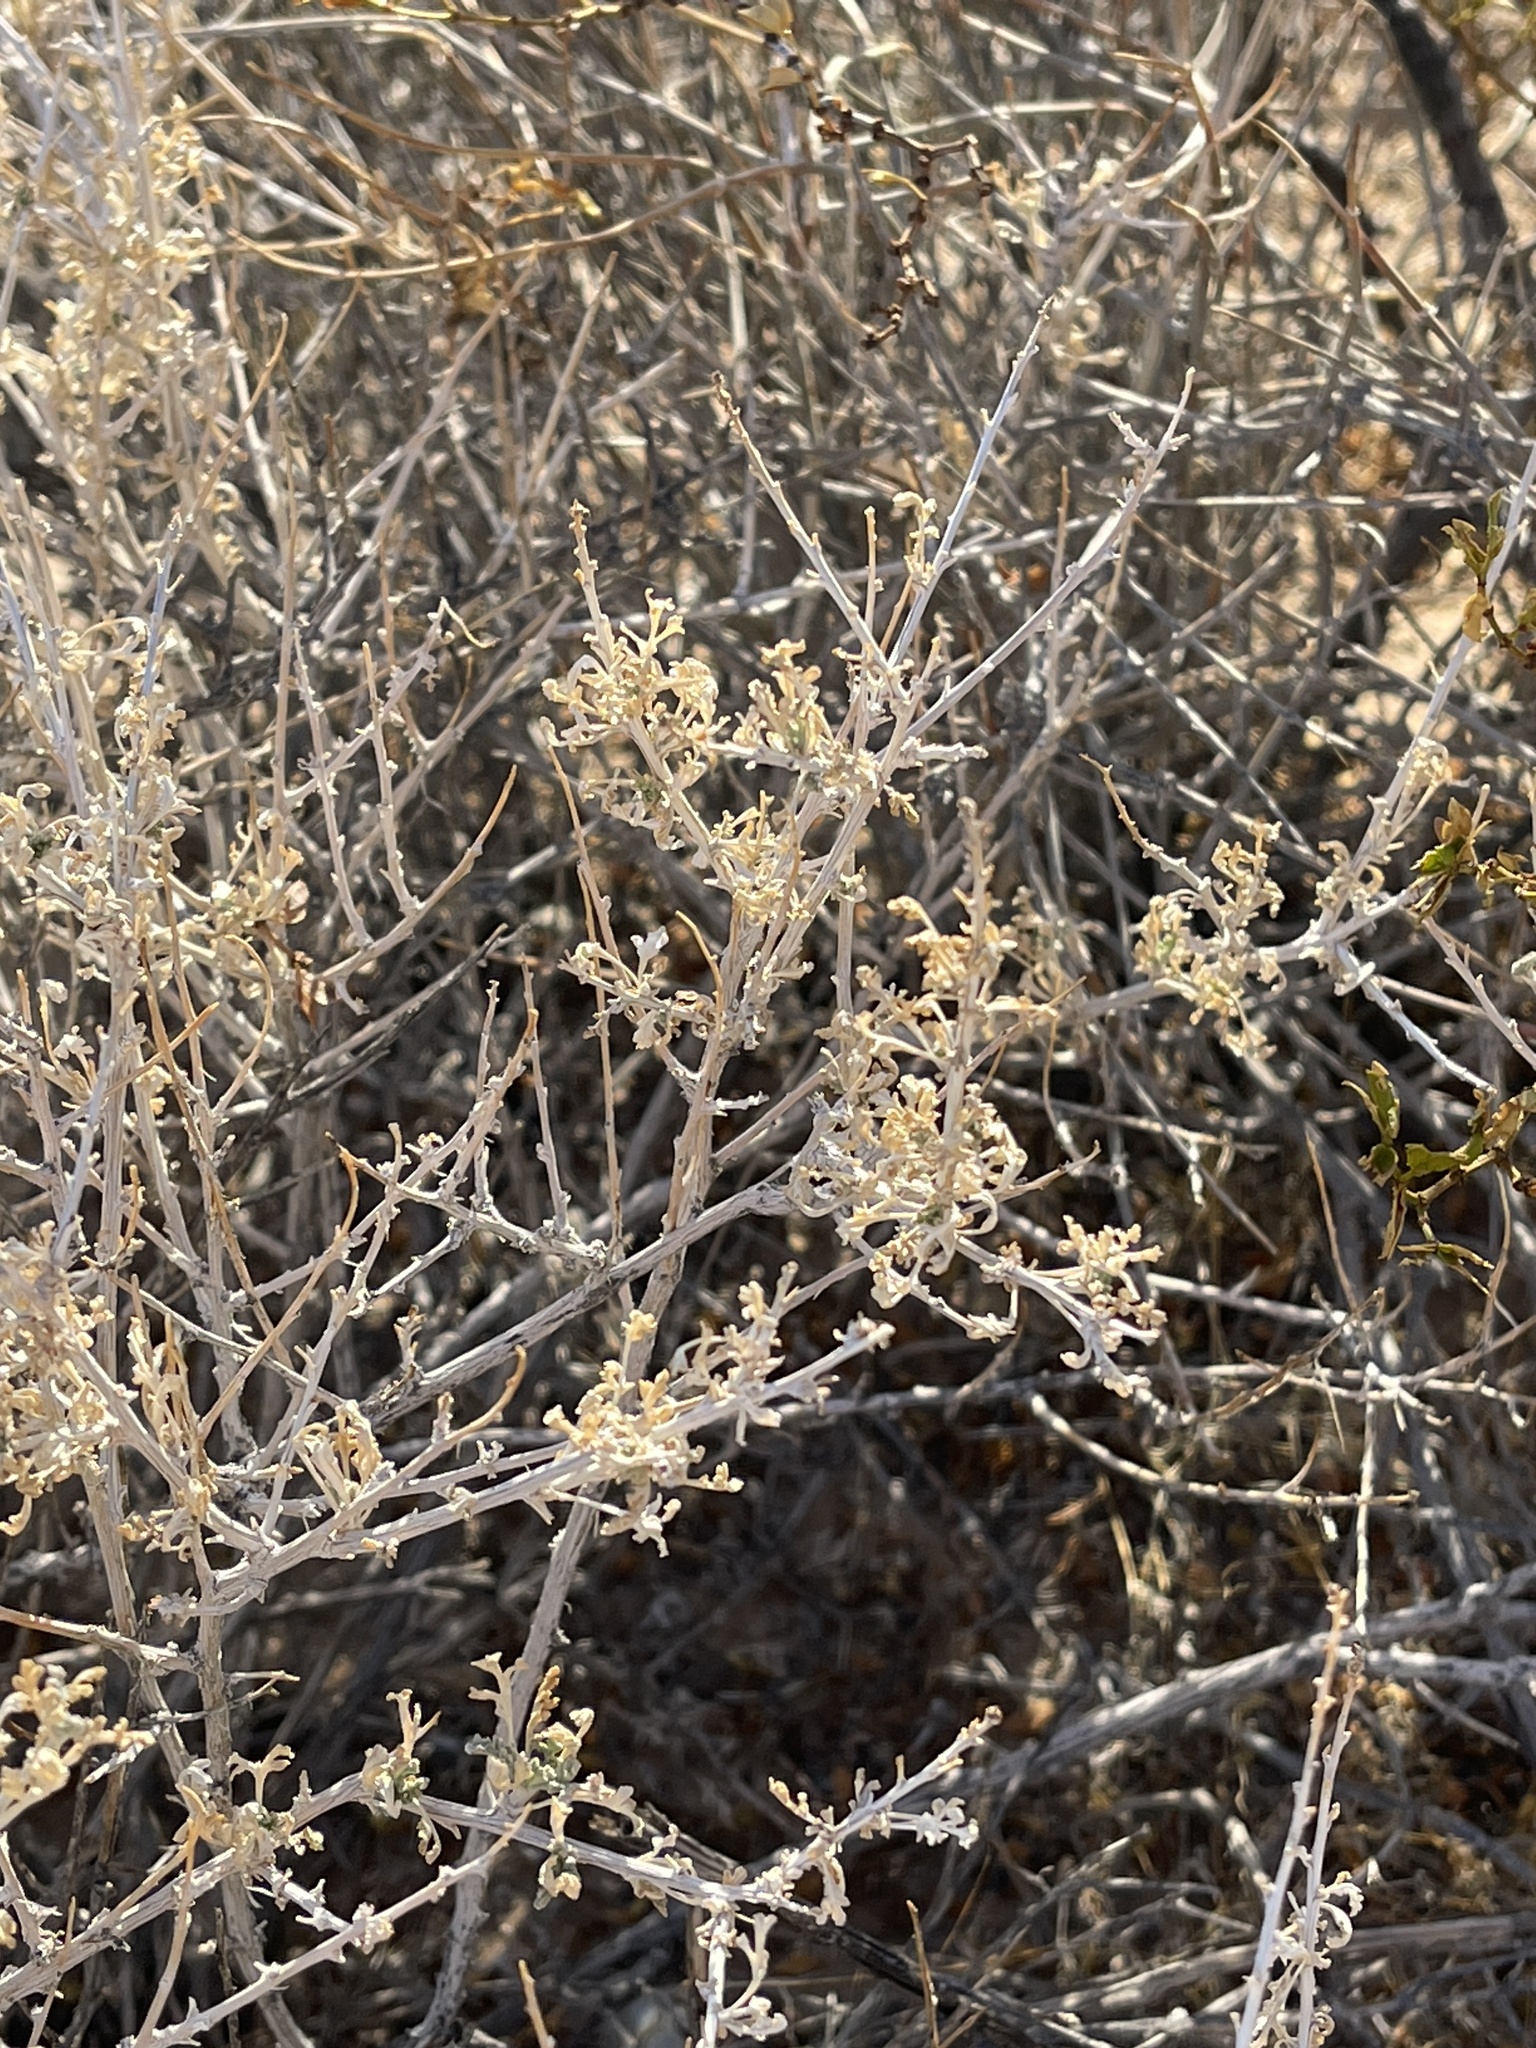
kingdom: Plantae
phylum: Tracheophyta
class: Magnoliopsida
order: Asterales
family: Asteraceae
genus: Ambrosia
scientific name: Ambrosia dumosa
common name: Bur-sage
